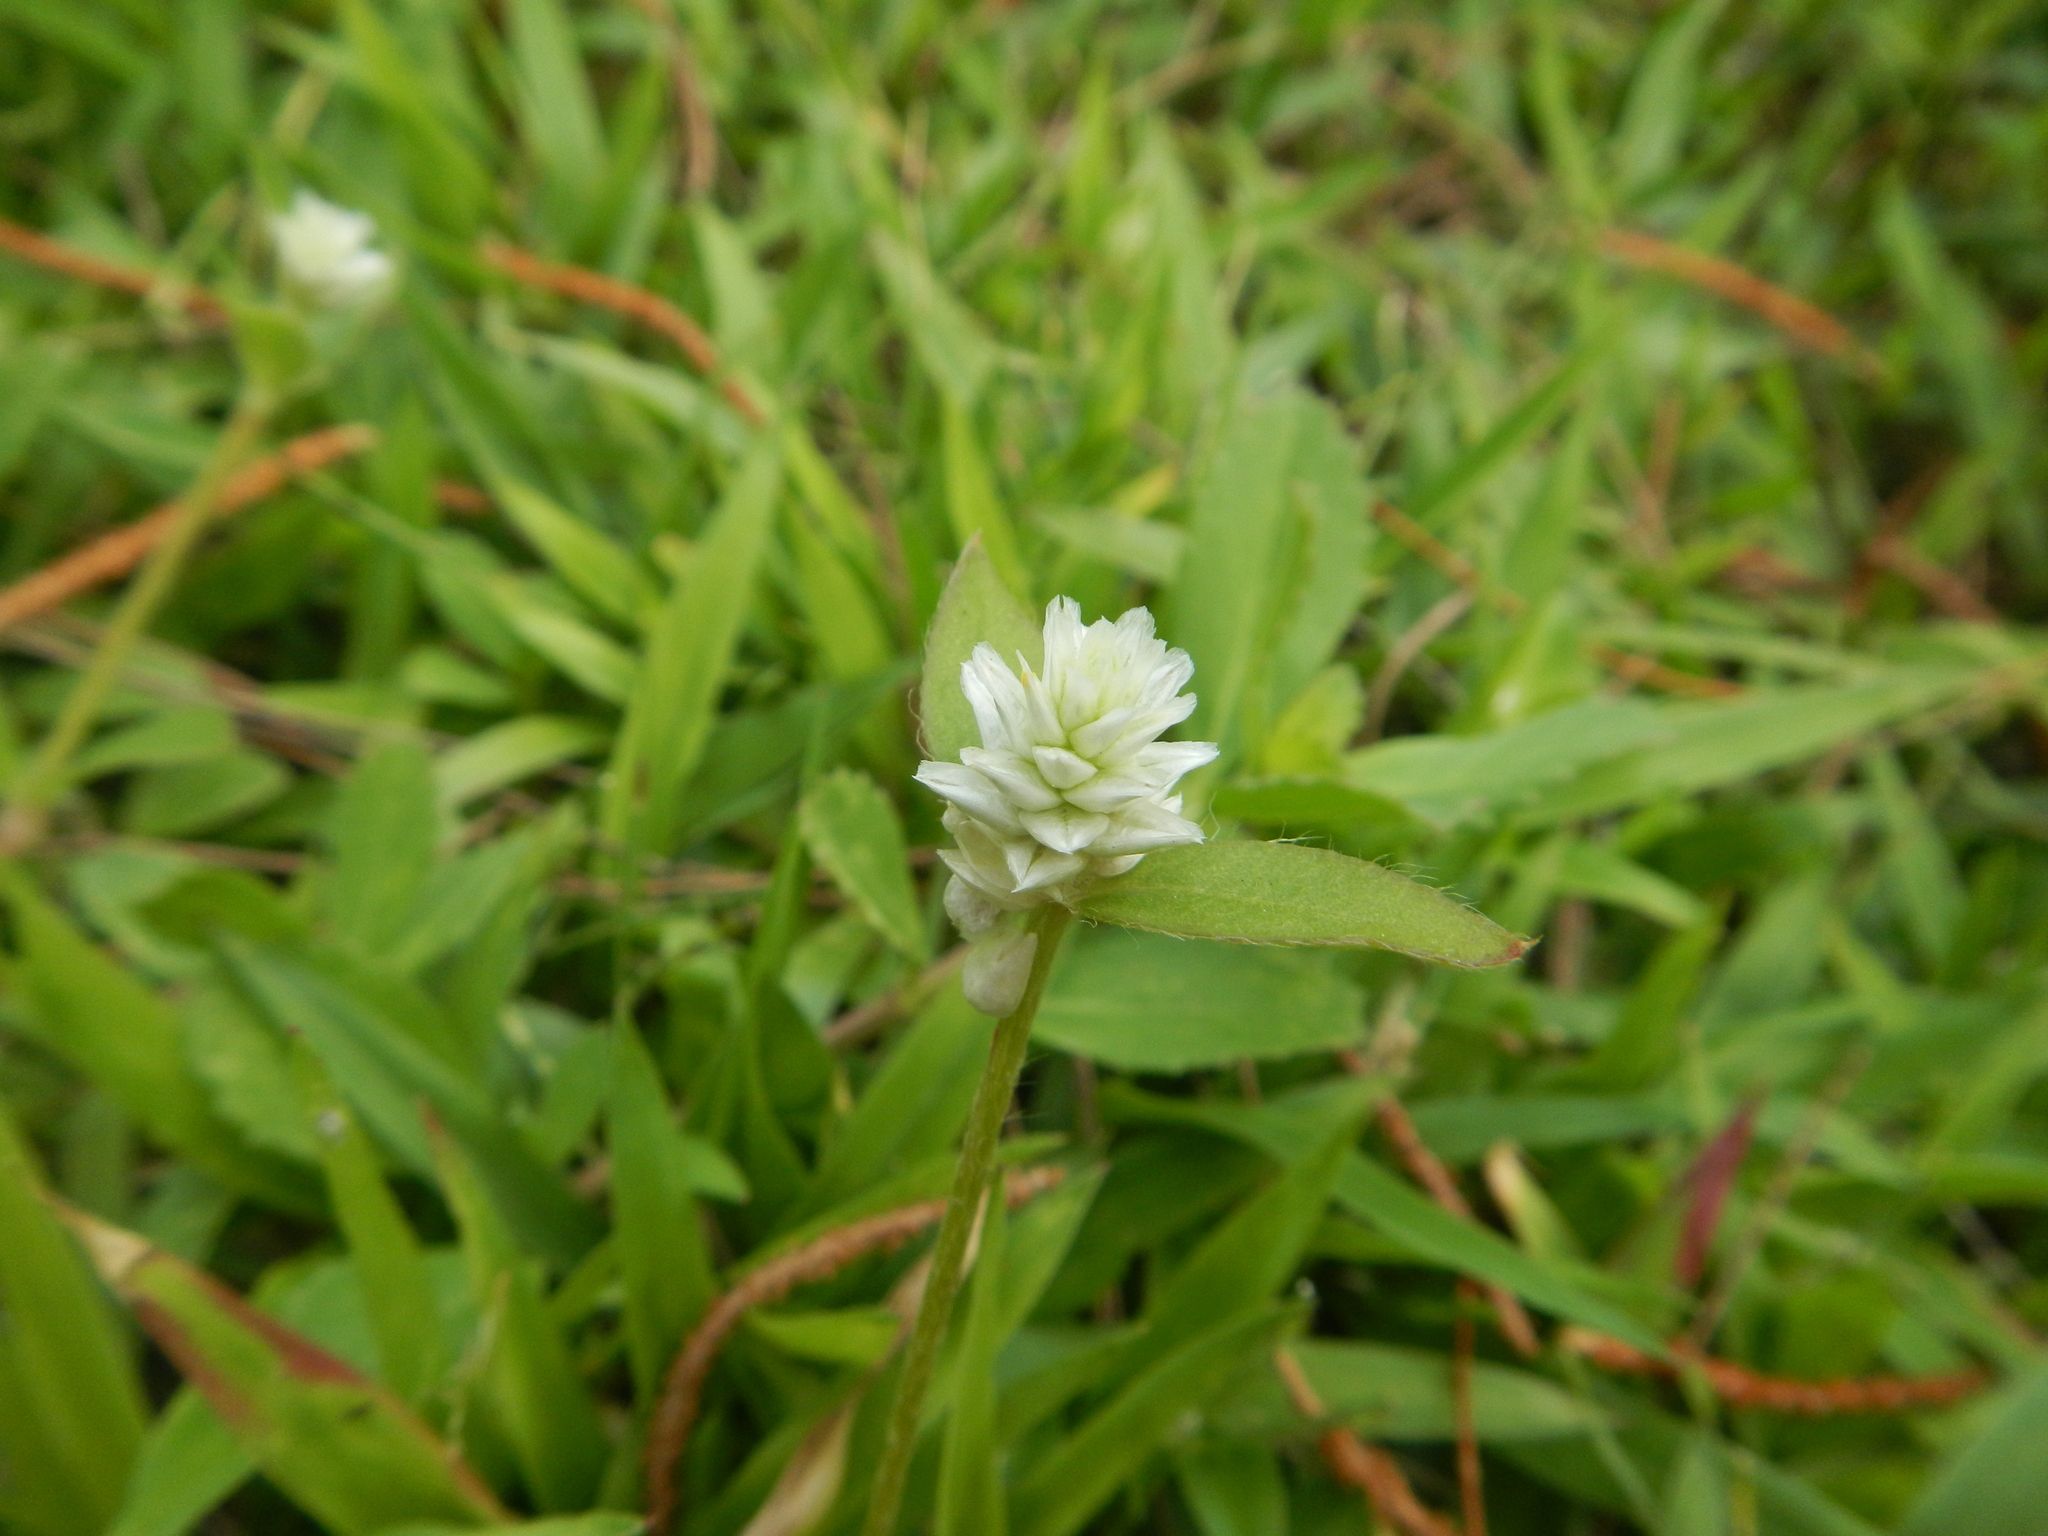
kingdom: Plantae
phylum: Tracheophyta
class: Magnoliopsida
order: Caryophyllales
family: Amaranthaceae
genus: Gomphrena
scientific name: Gomphrena serrata
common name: Arrasa con todo
